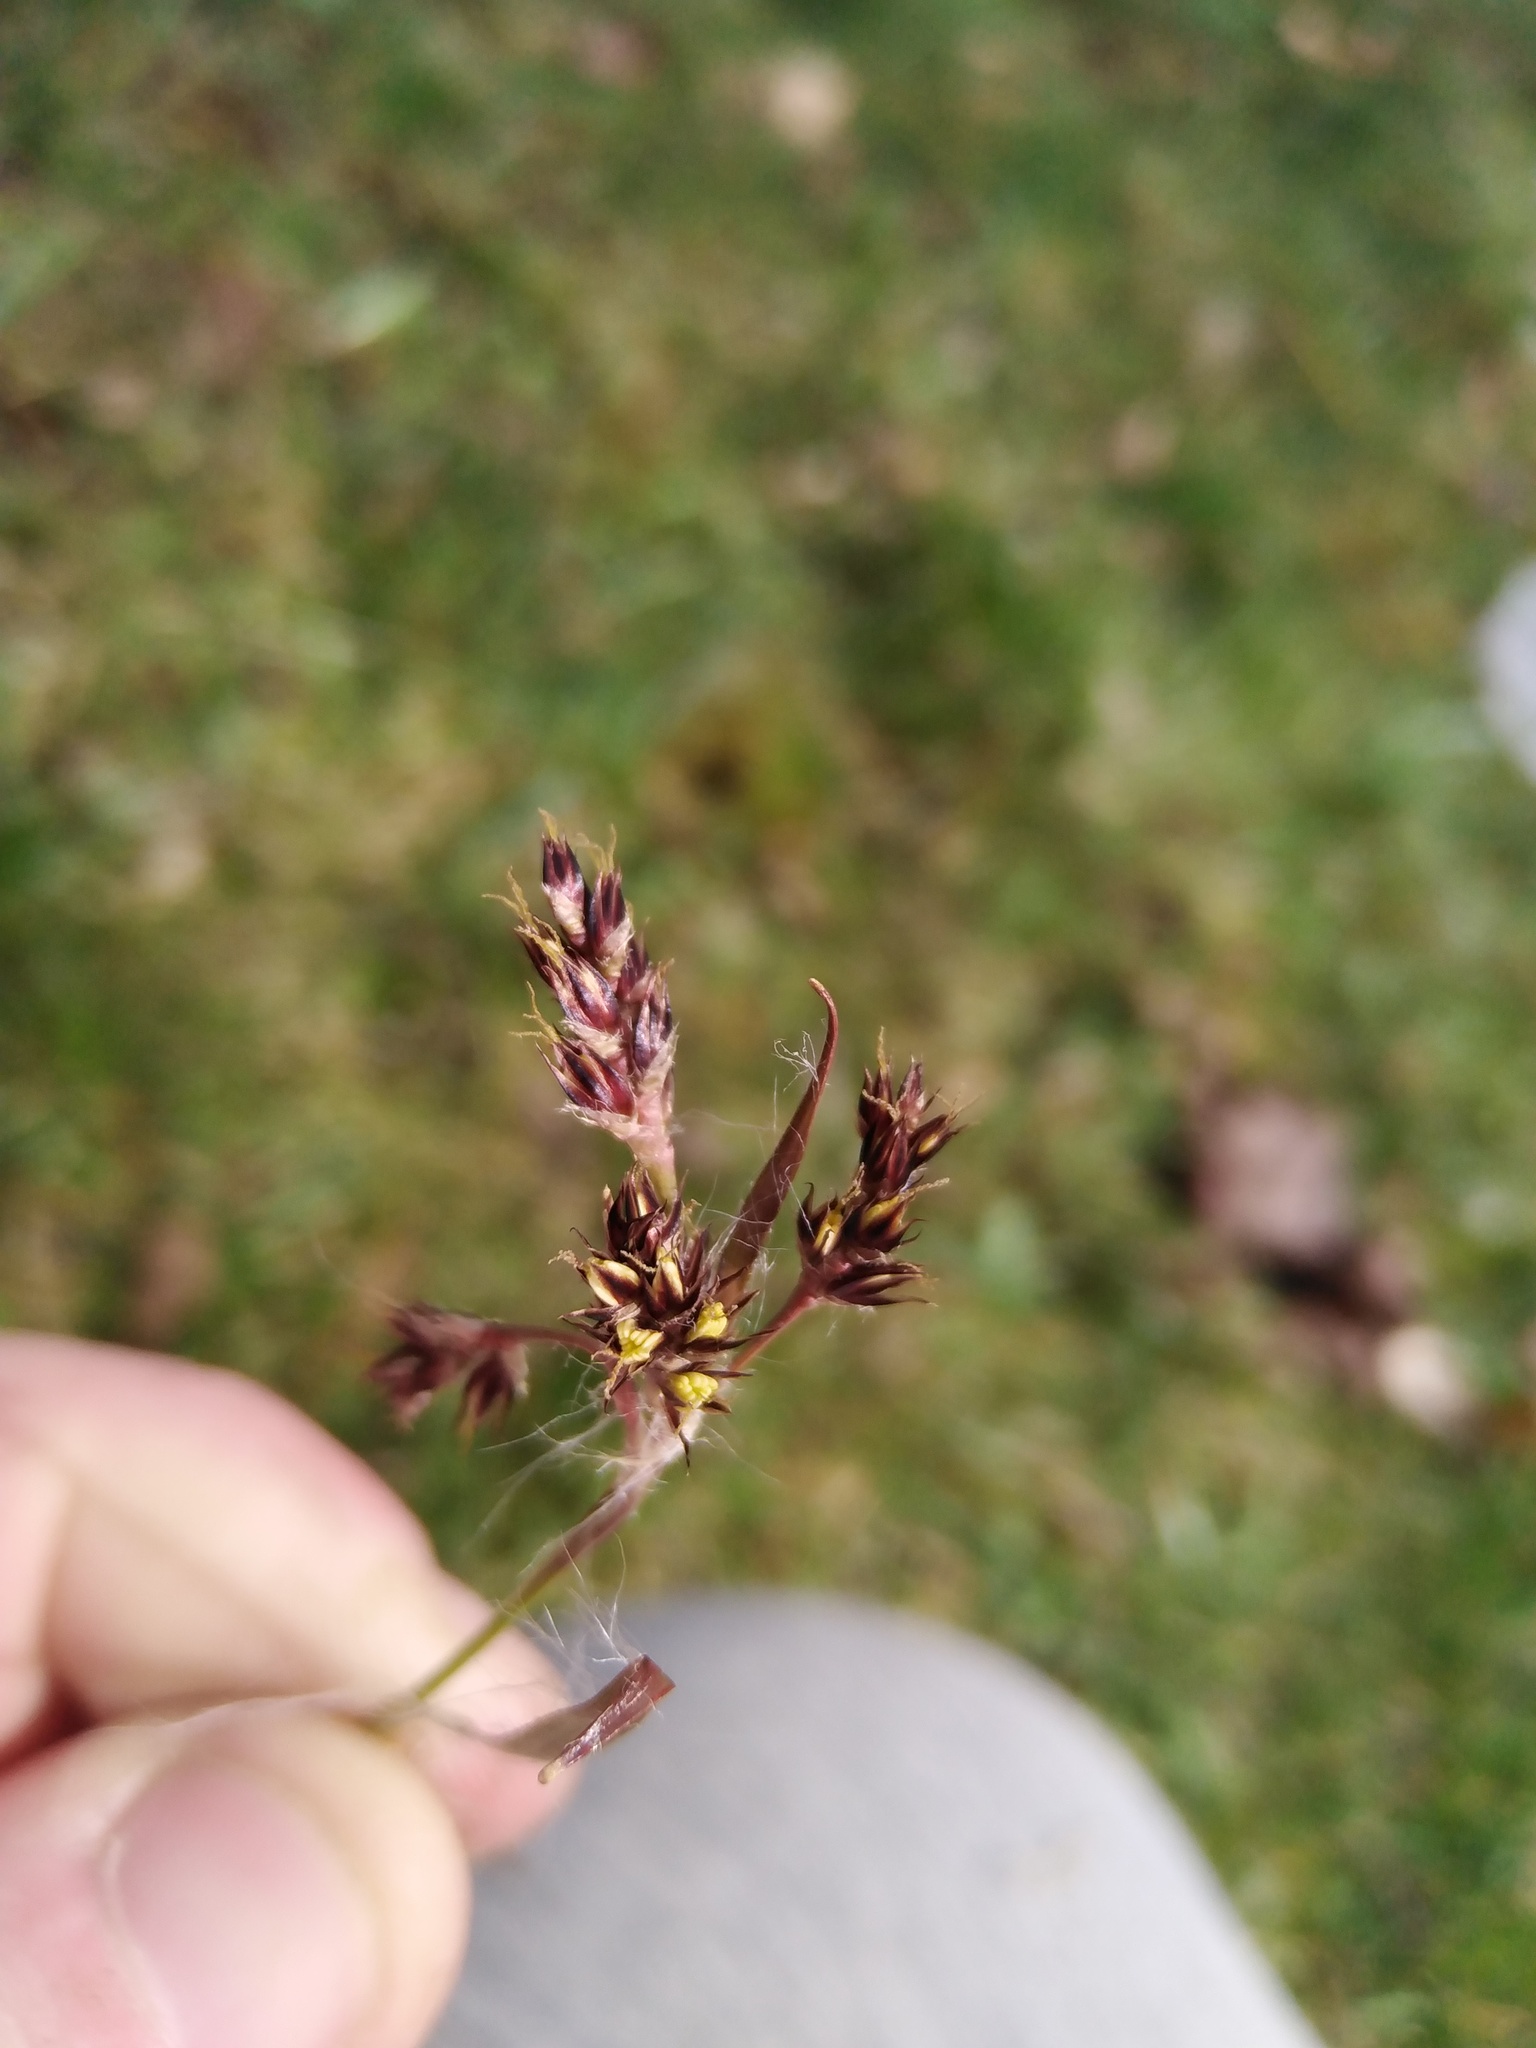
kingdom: Plantae
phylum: Tracheophyta
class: Liliopsida
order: Poales
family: Juncaceae
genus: Luzula
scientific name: Luzula campestris
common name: Field wood-rush
